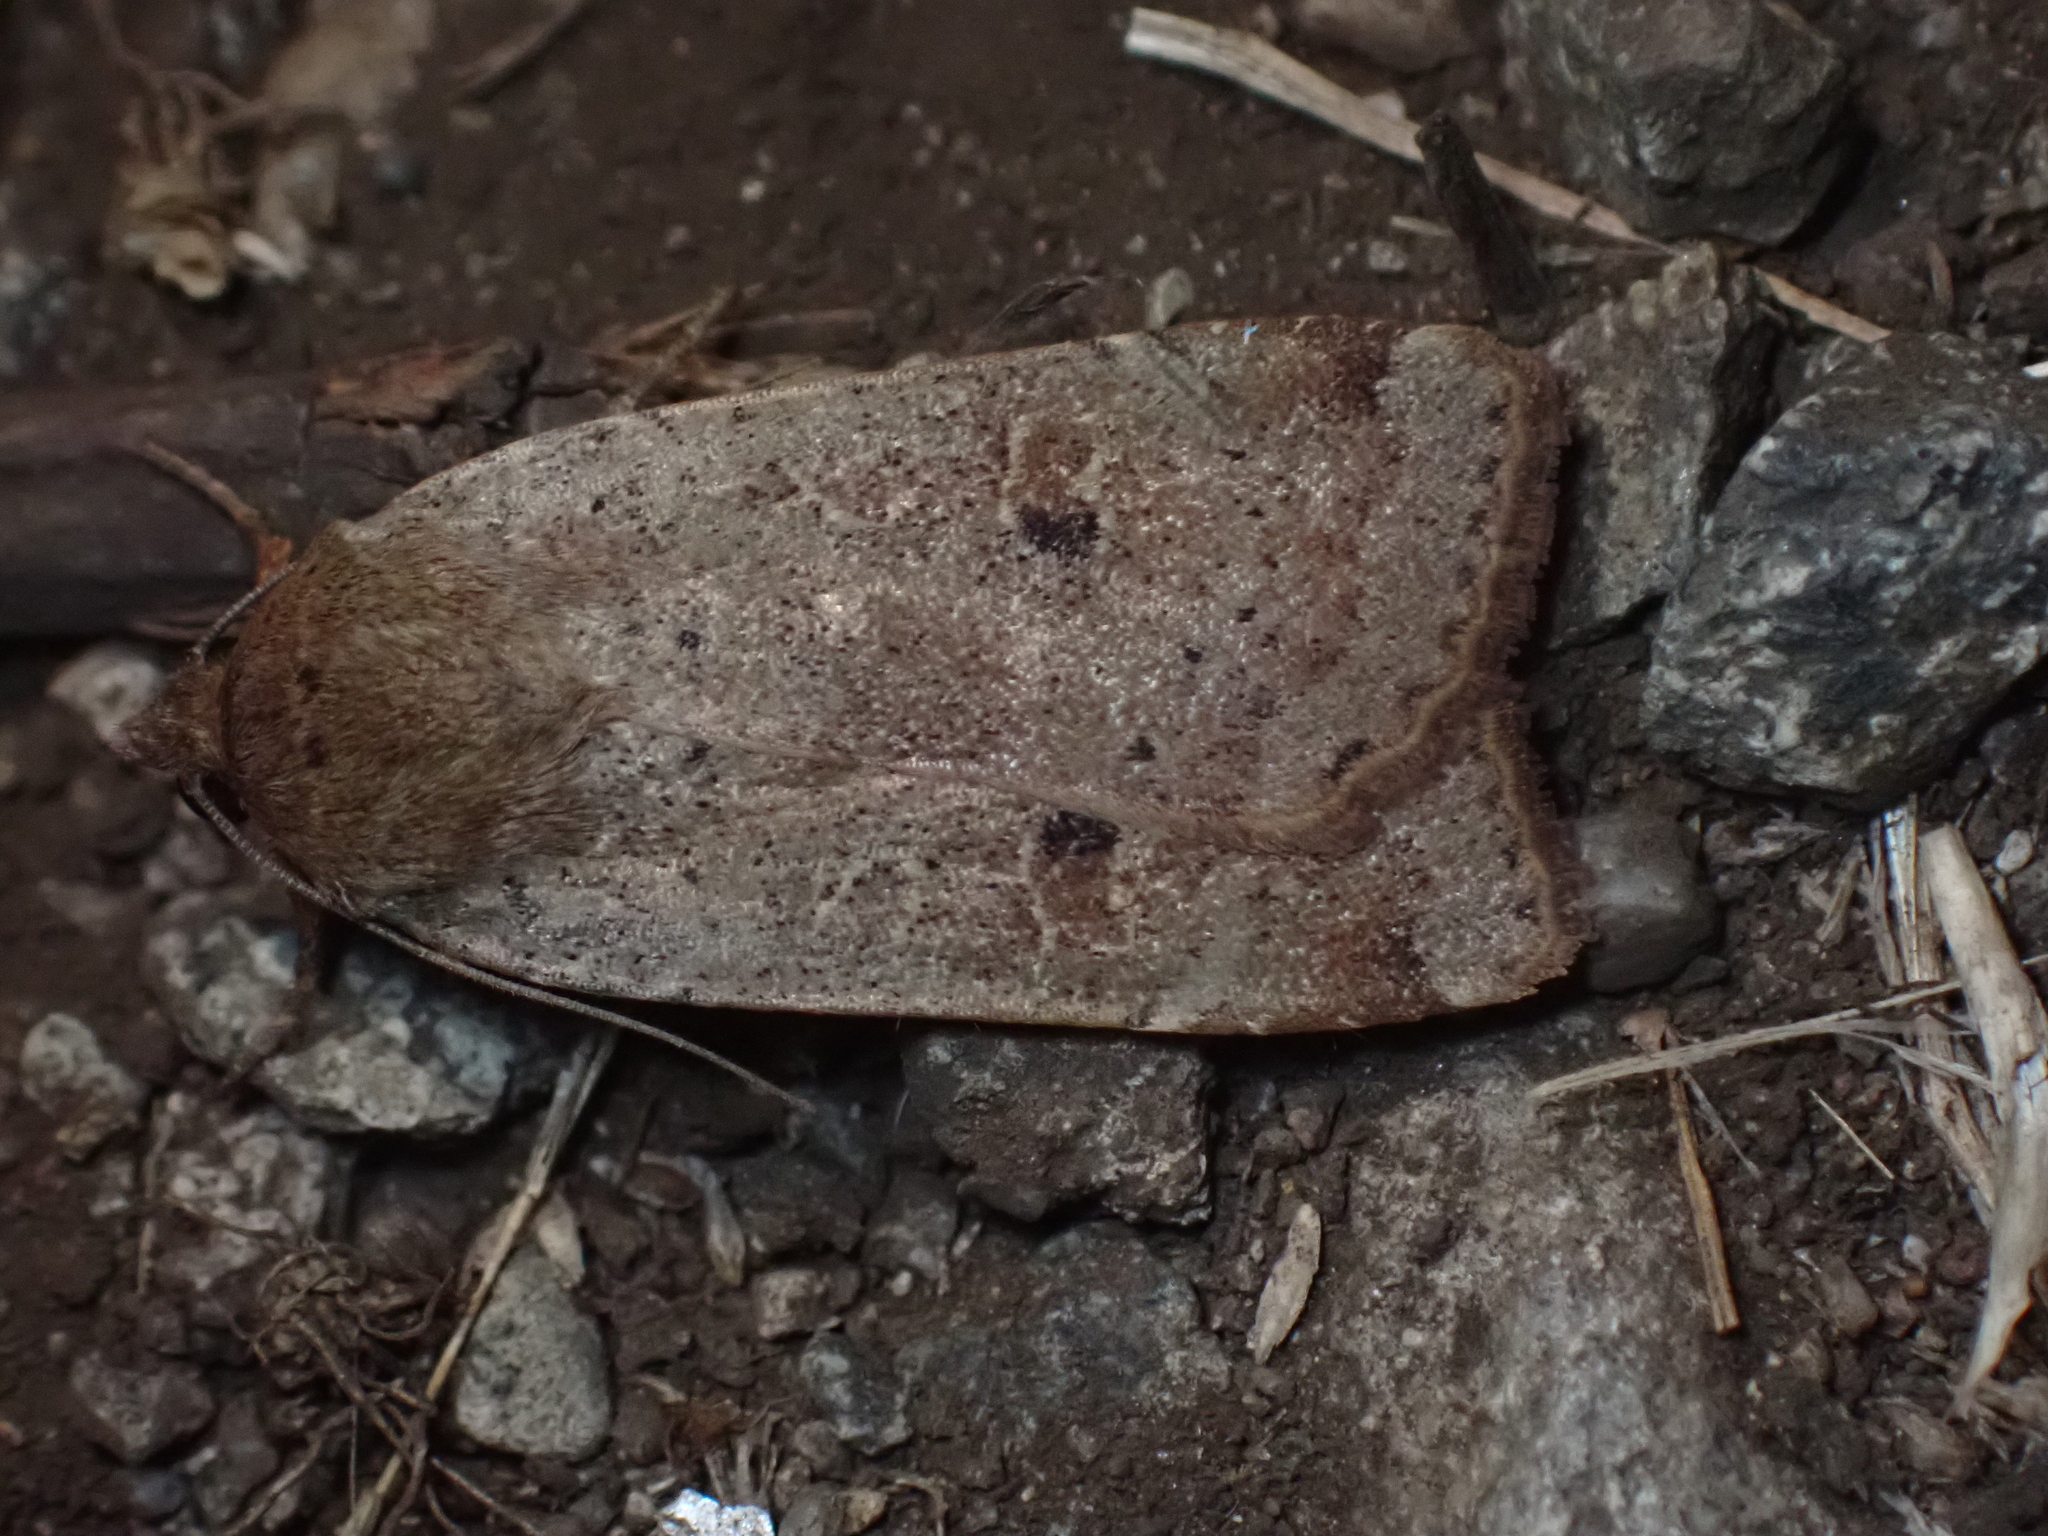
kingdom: Animalia
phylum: Arthropoda
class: Insecta
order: Lepidoptera
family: Noctuidae
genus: Noctua
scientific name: Noctua comes
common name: Lesser yellow underwing
